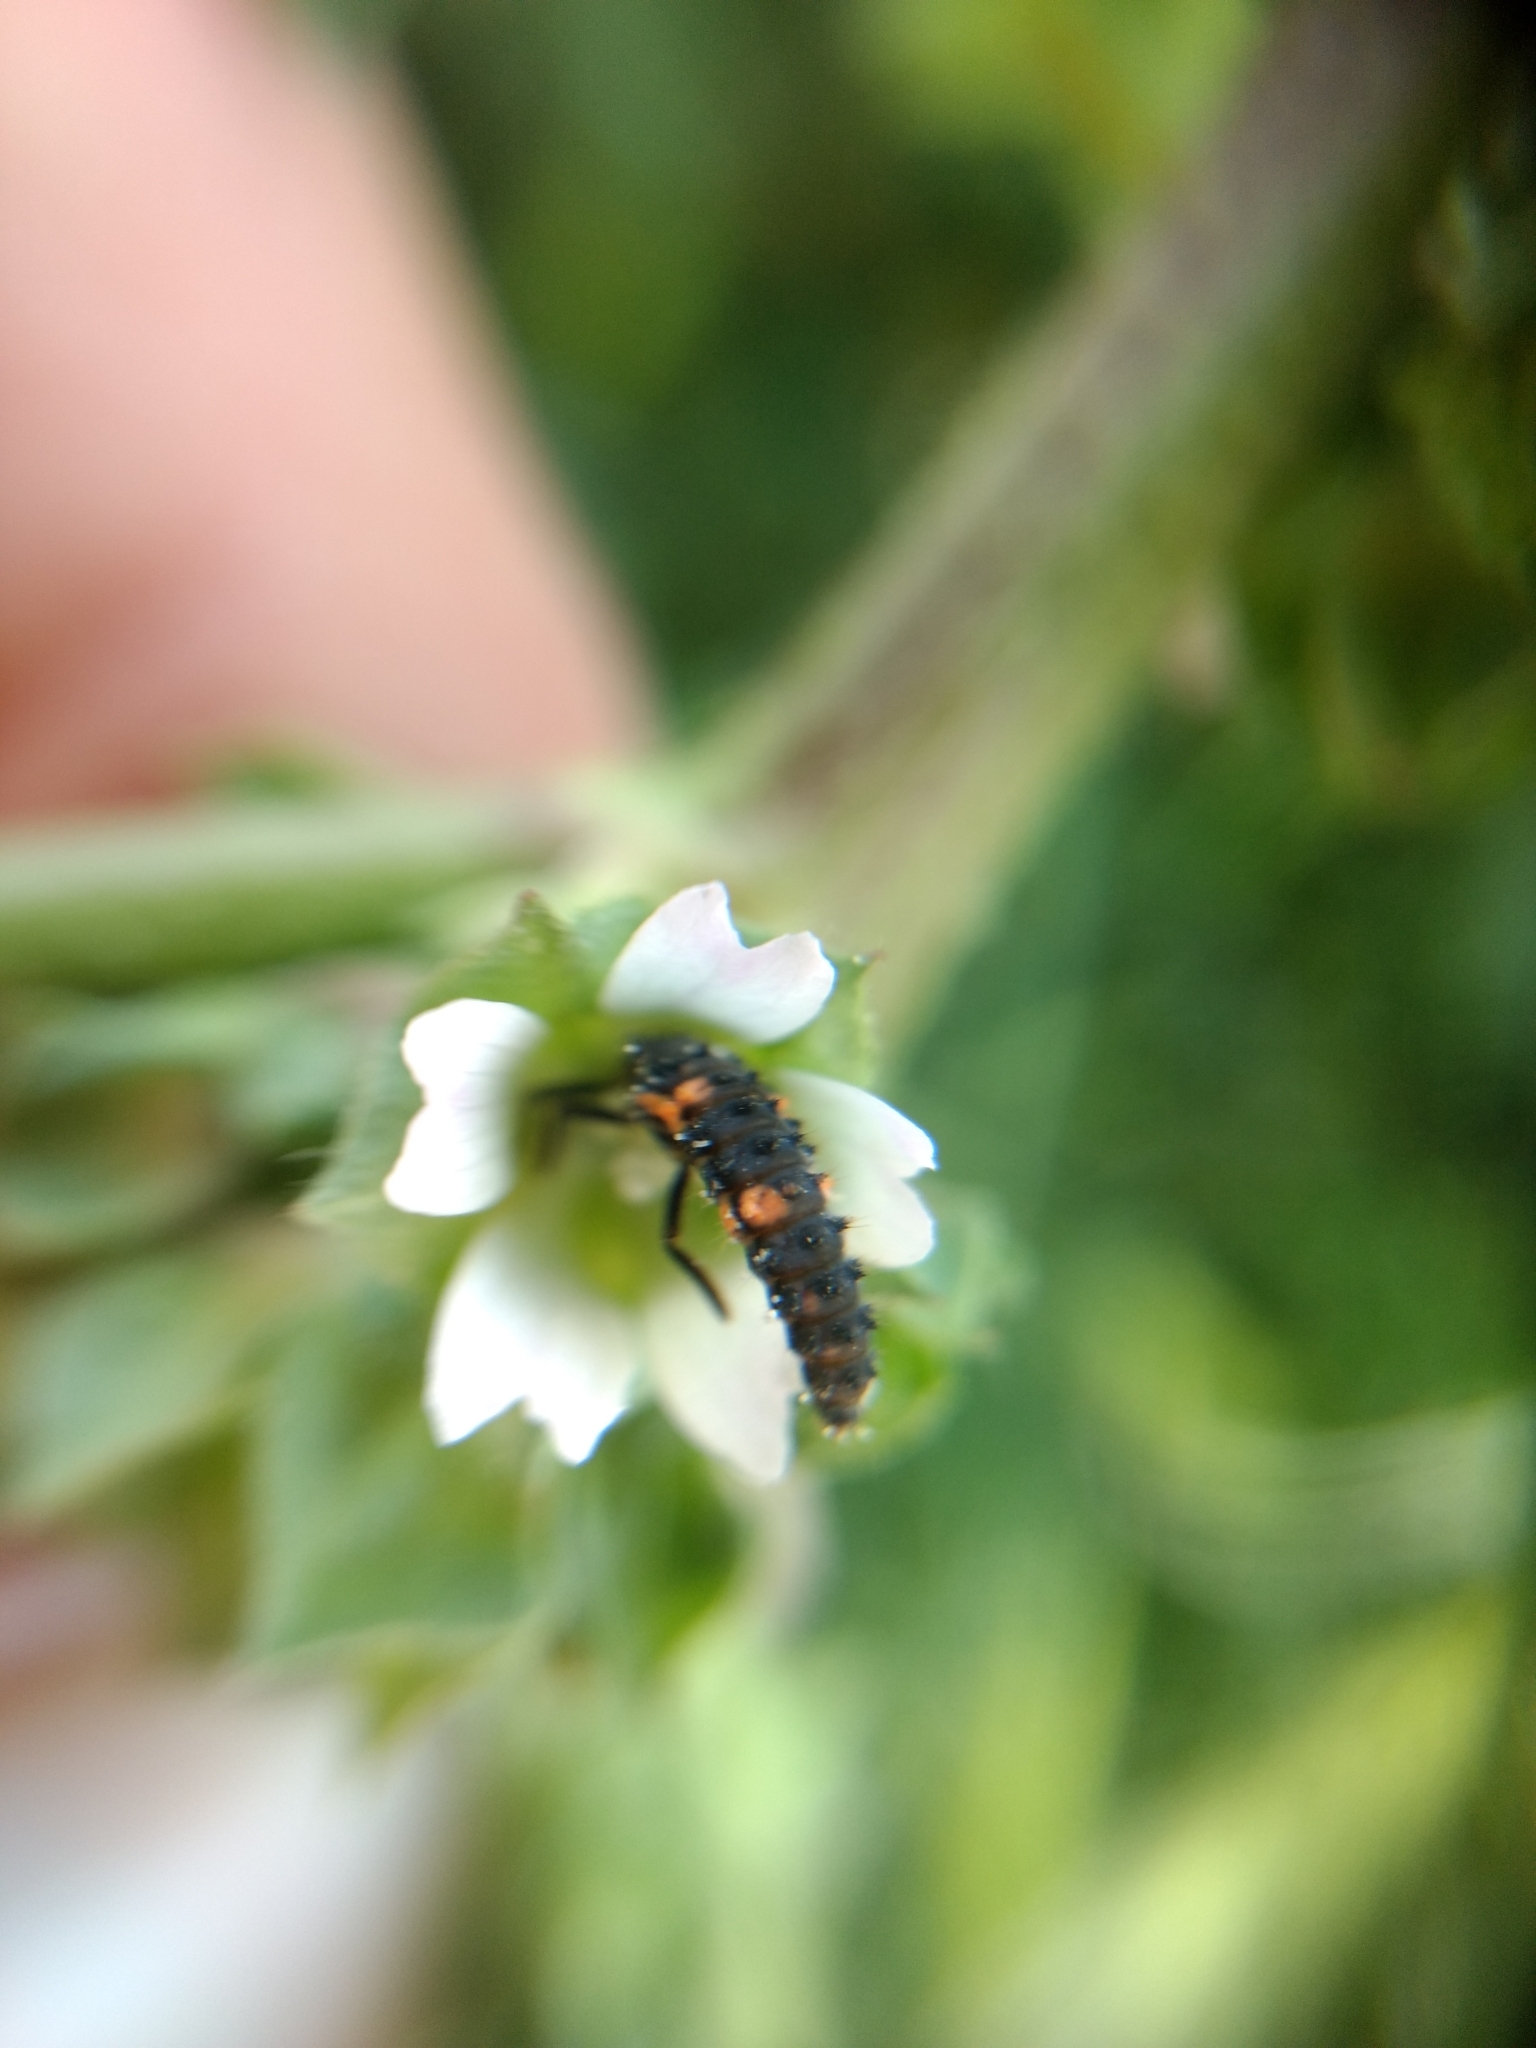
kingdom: Animalia
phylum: Arthropoda
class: Insecta
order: Coleoptera
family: Coccinellidae
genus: Hippodamia
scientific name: Hippodamia convergens
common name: Convergent lady beetle
